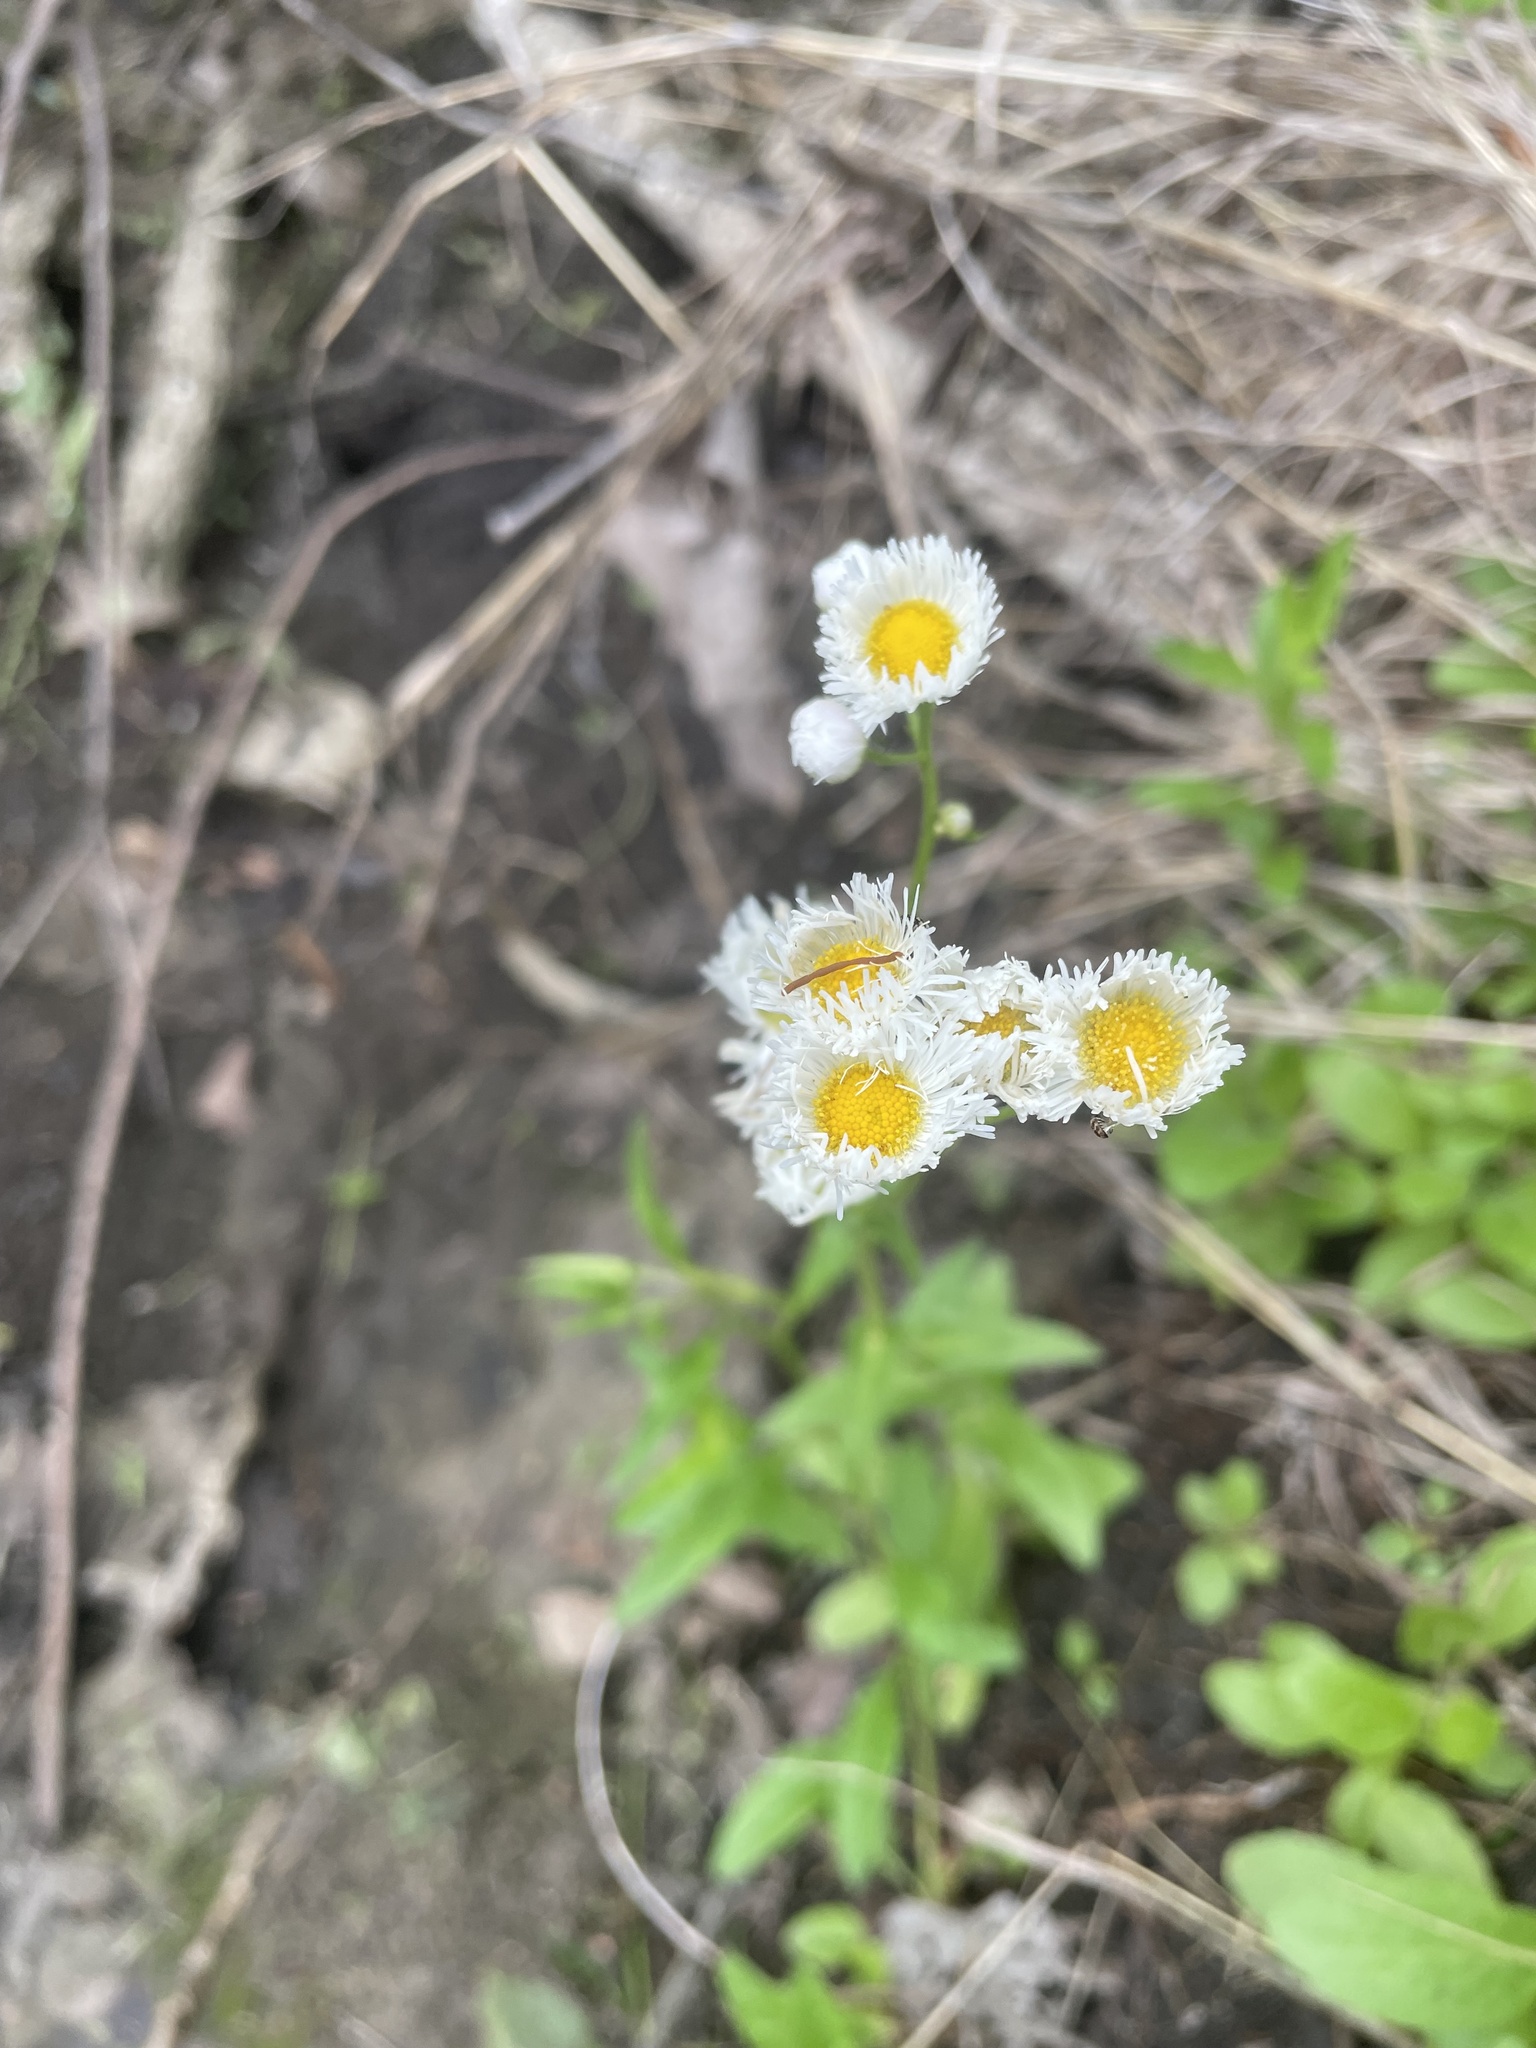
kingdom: Plantae
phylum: Tracheophyta
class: Magnoliopsida
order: Asterales
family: Asteraceae
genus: Erigeron
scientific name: Erigeron strigosus
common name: Common eastern fleabane
